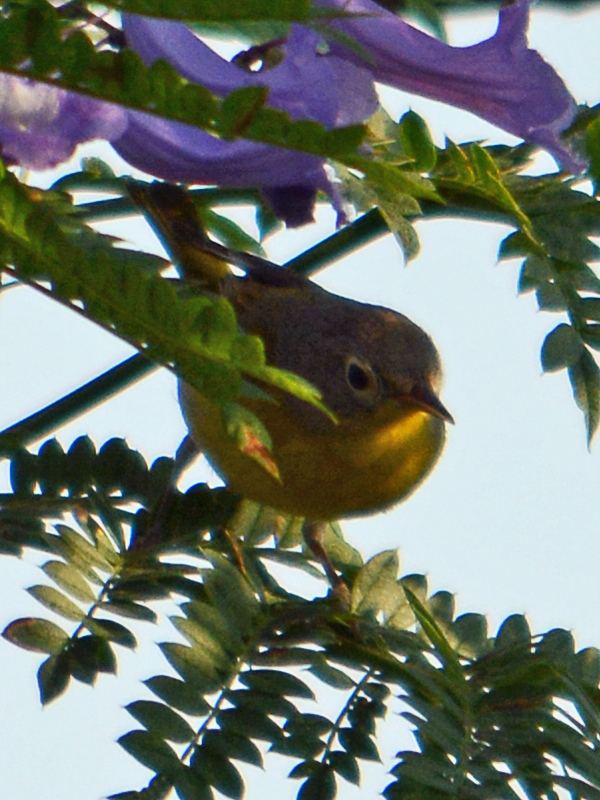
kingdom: Animalia
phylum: Chordata
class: Aves
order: Passeriformes
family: Parulidae
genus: Leiothlypis
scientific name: Leiothlypis ruficapilla
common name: Nashville warbler
